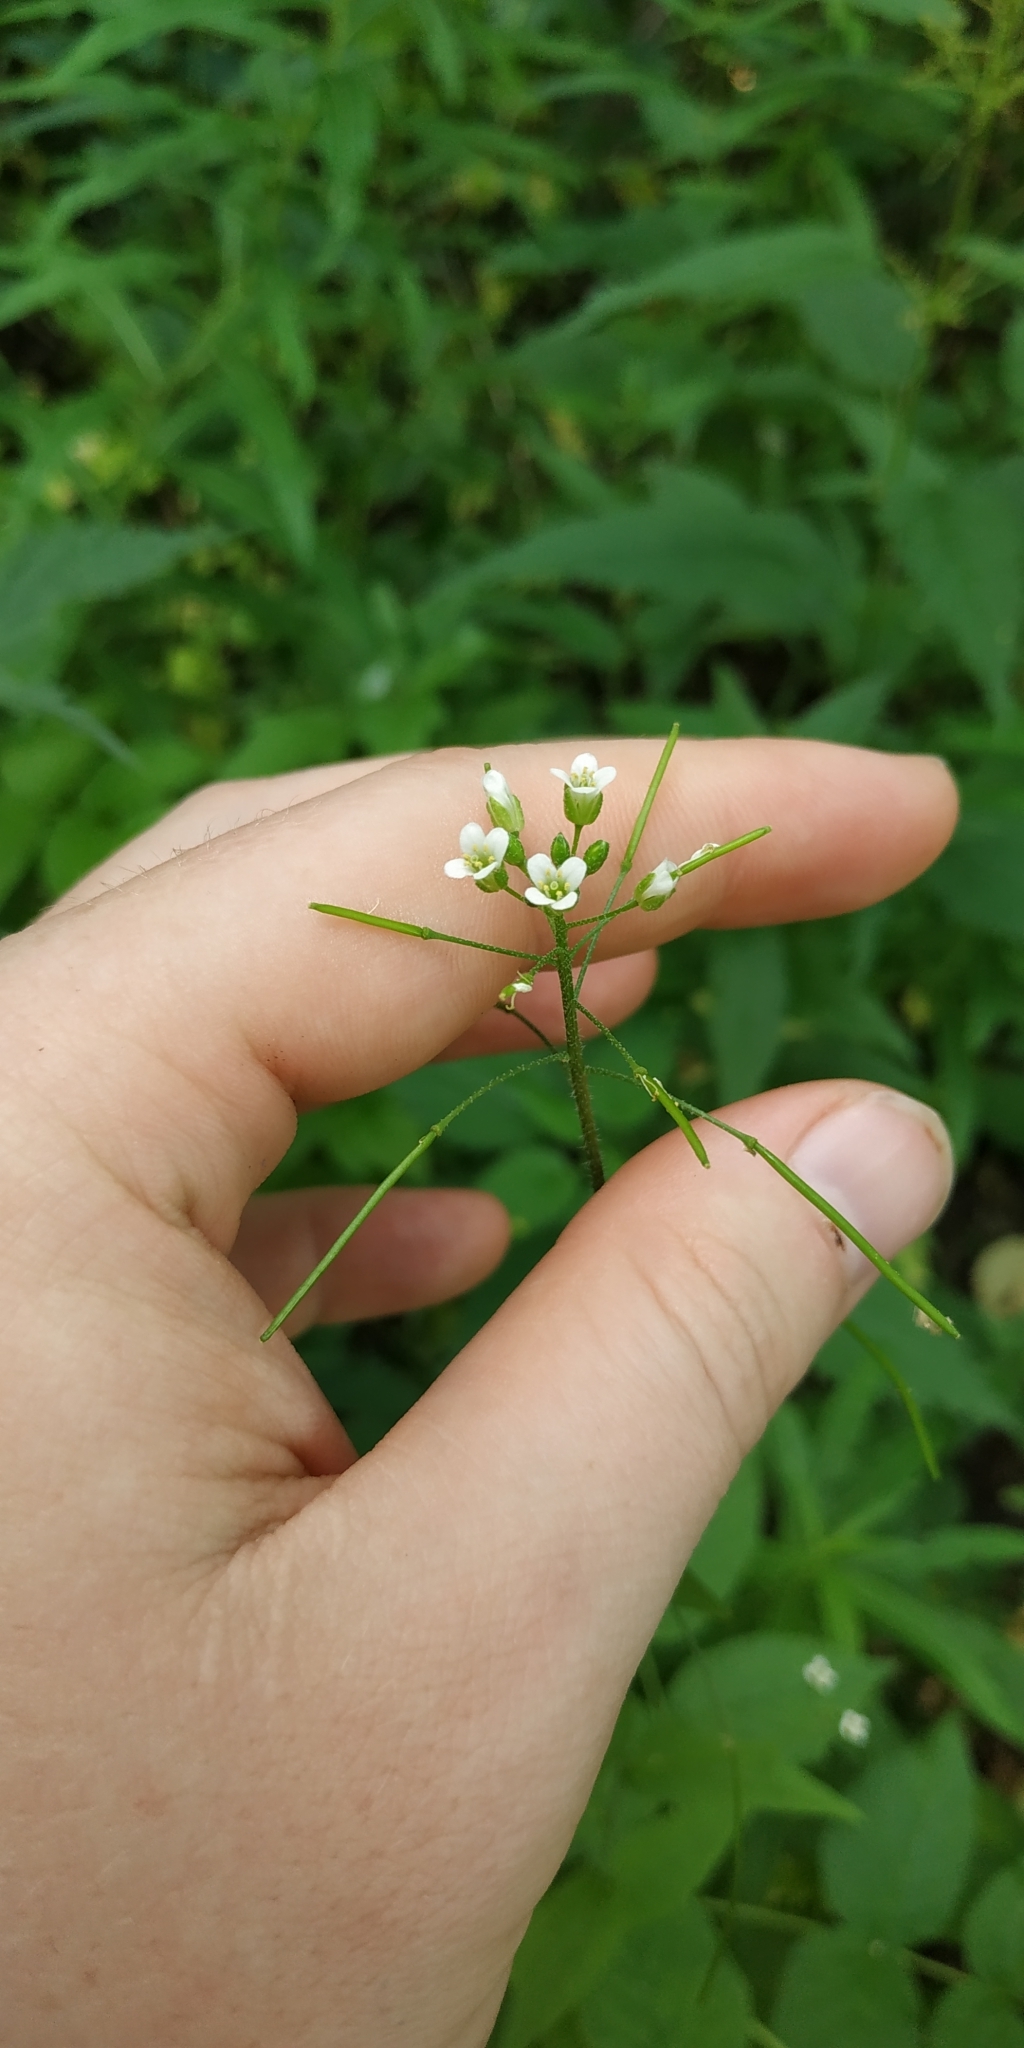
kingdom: Plantae
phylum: Tracheophyta
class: Magnoliopsida
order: Brassicales
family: Brassicaceae
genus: Catolobus
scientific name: Catolobus pendulus
